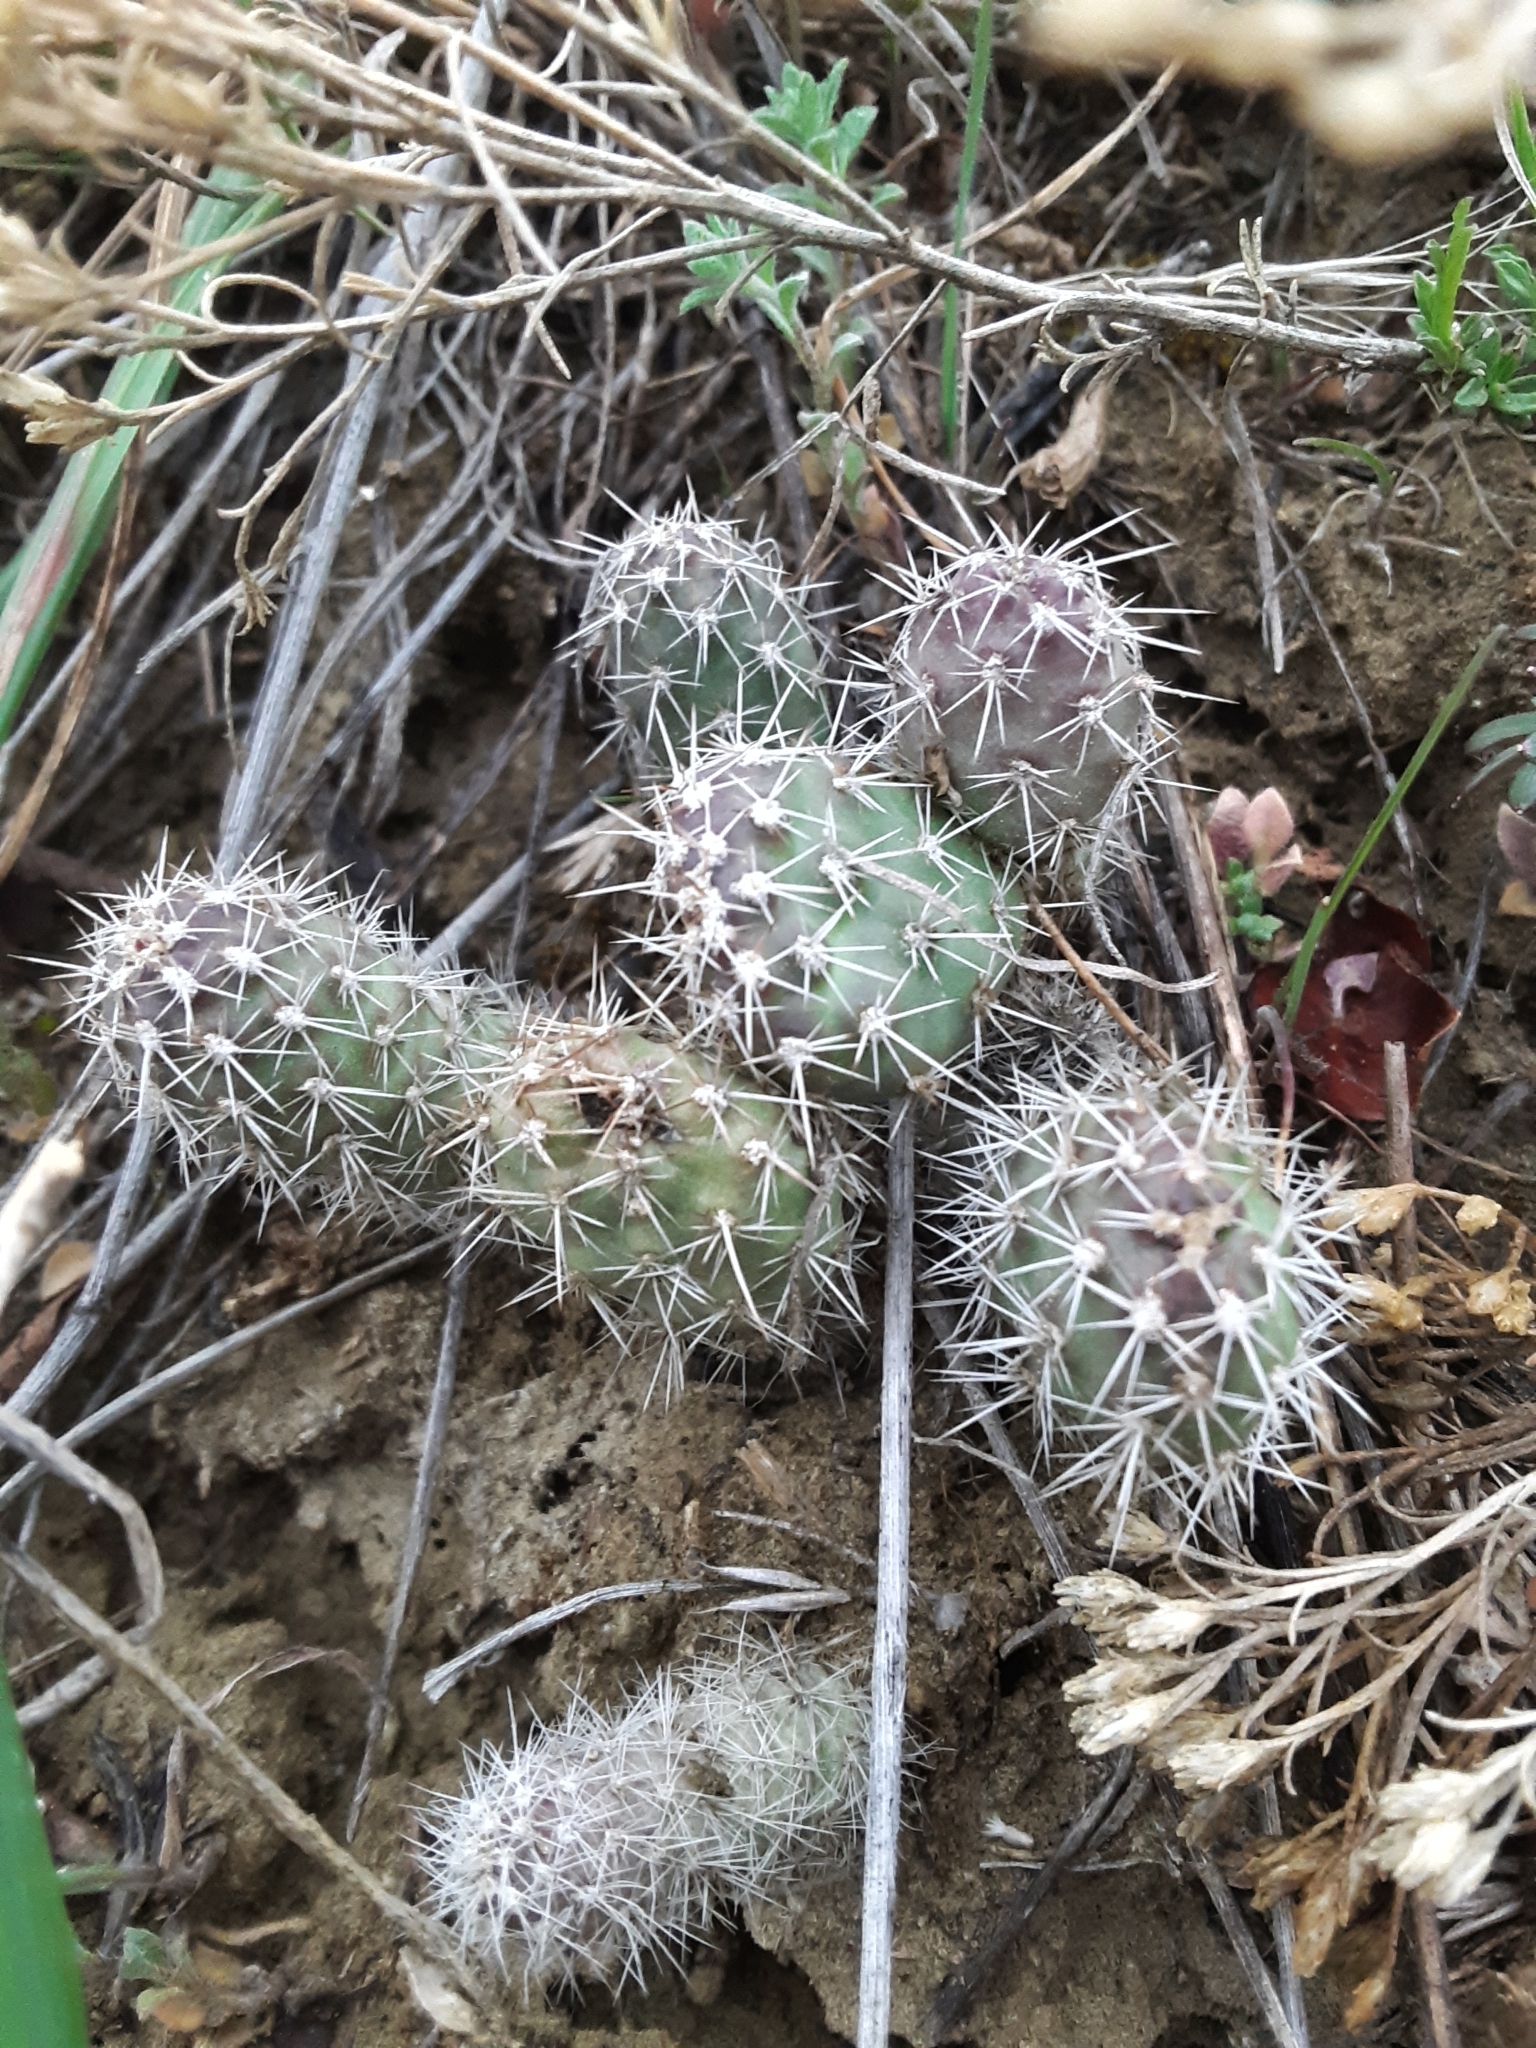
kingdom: Plantae
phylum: Tracheophyta
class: Magnoliopsida
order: Caryophyllales
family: Cactaceae
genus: Opuntia
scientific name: Opuntia fragilis
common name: Brittle cactus
